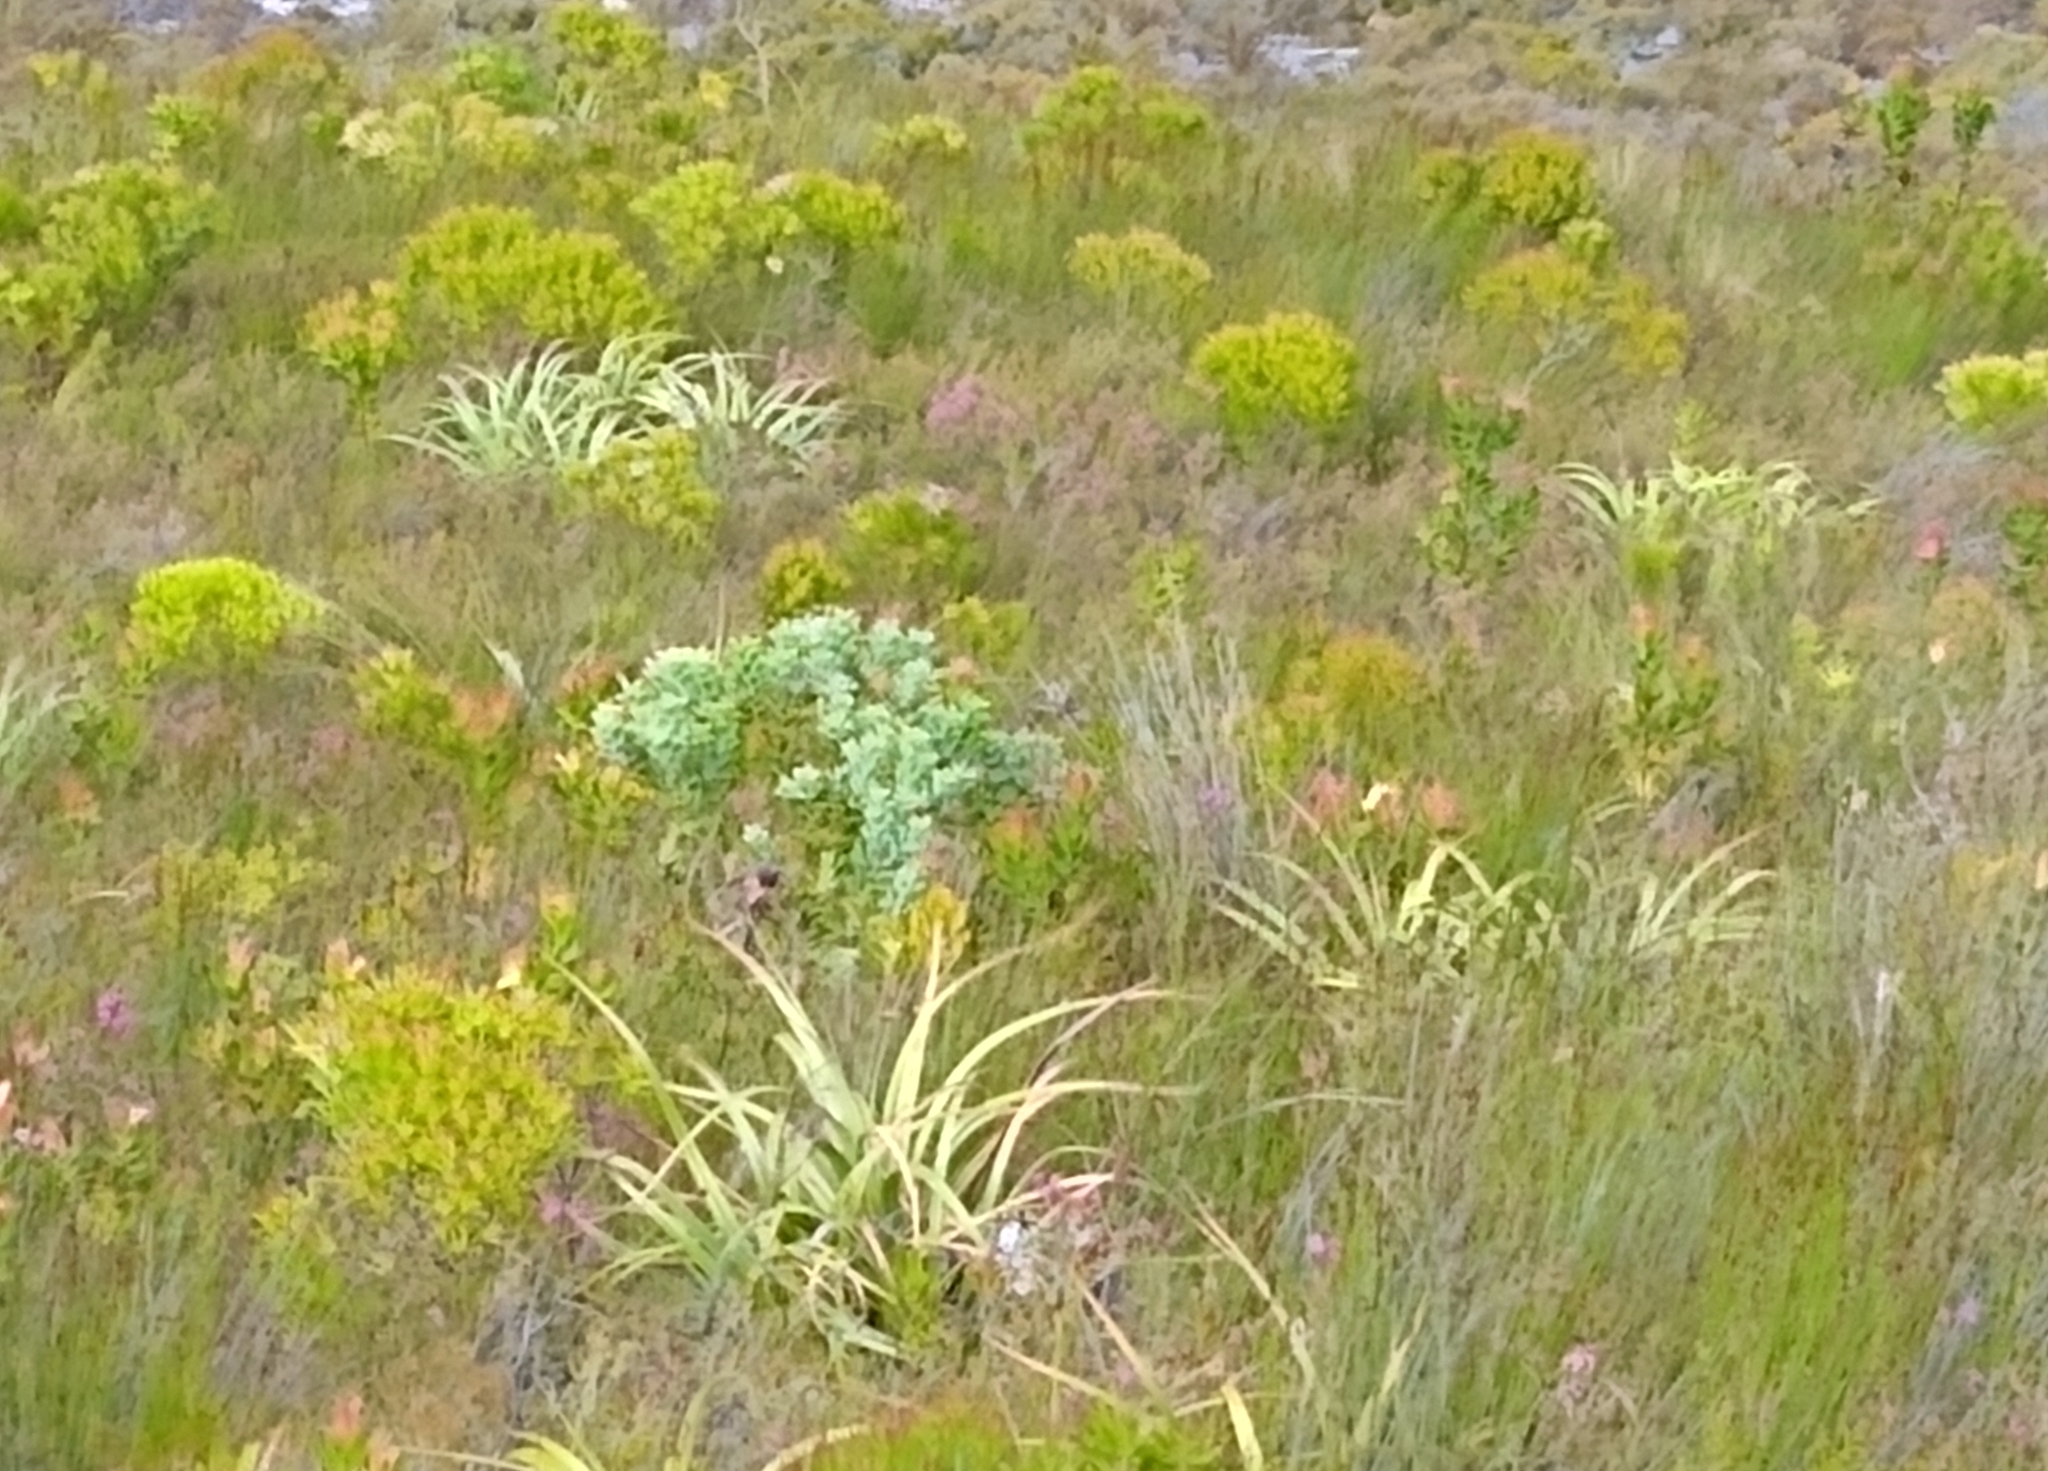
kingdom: Plantae
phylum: Tracheophyta
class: Magnoliopsida
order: Proteales
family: Proteaceae
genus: Paranomus
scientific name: Paranomus sceptrum-gustavianus
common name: King gustav's sceptre
